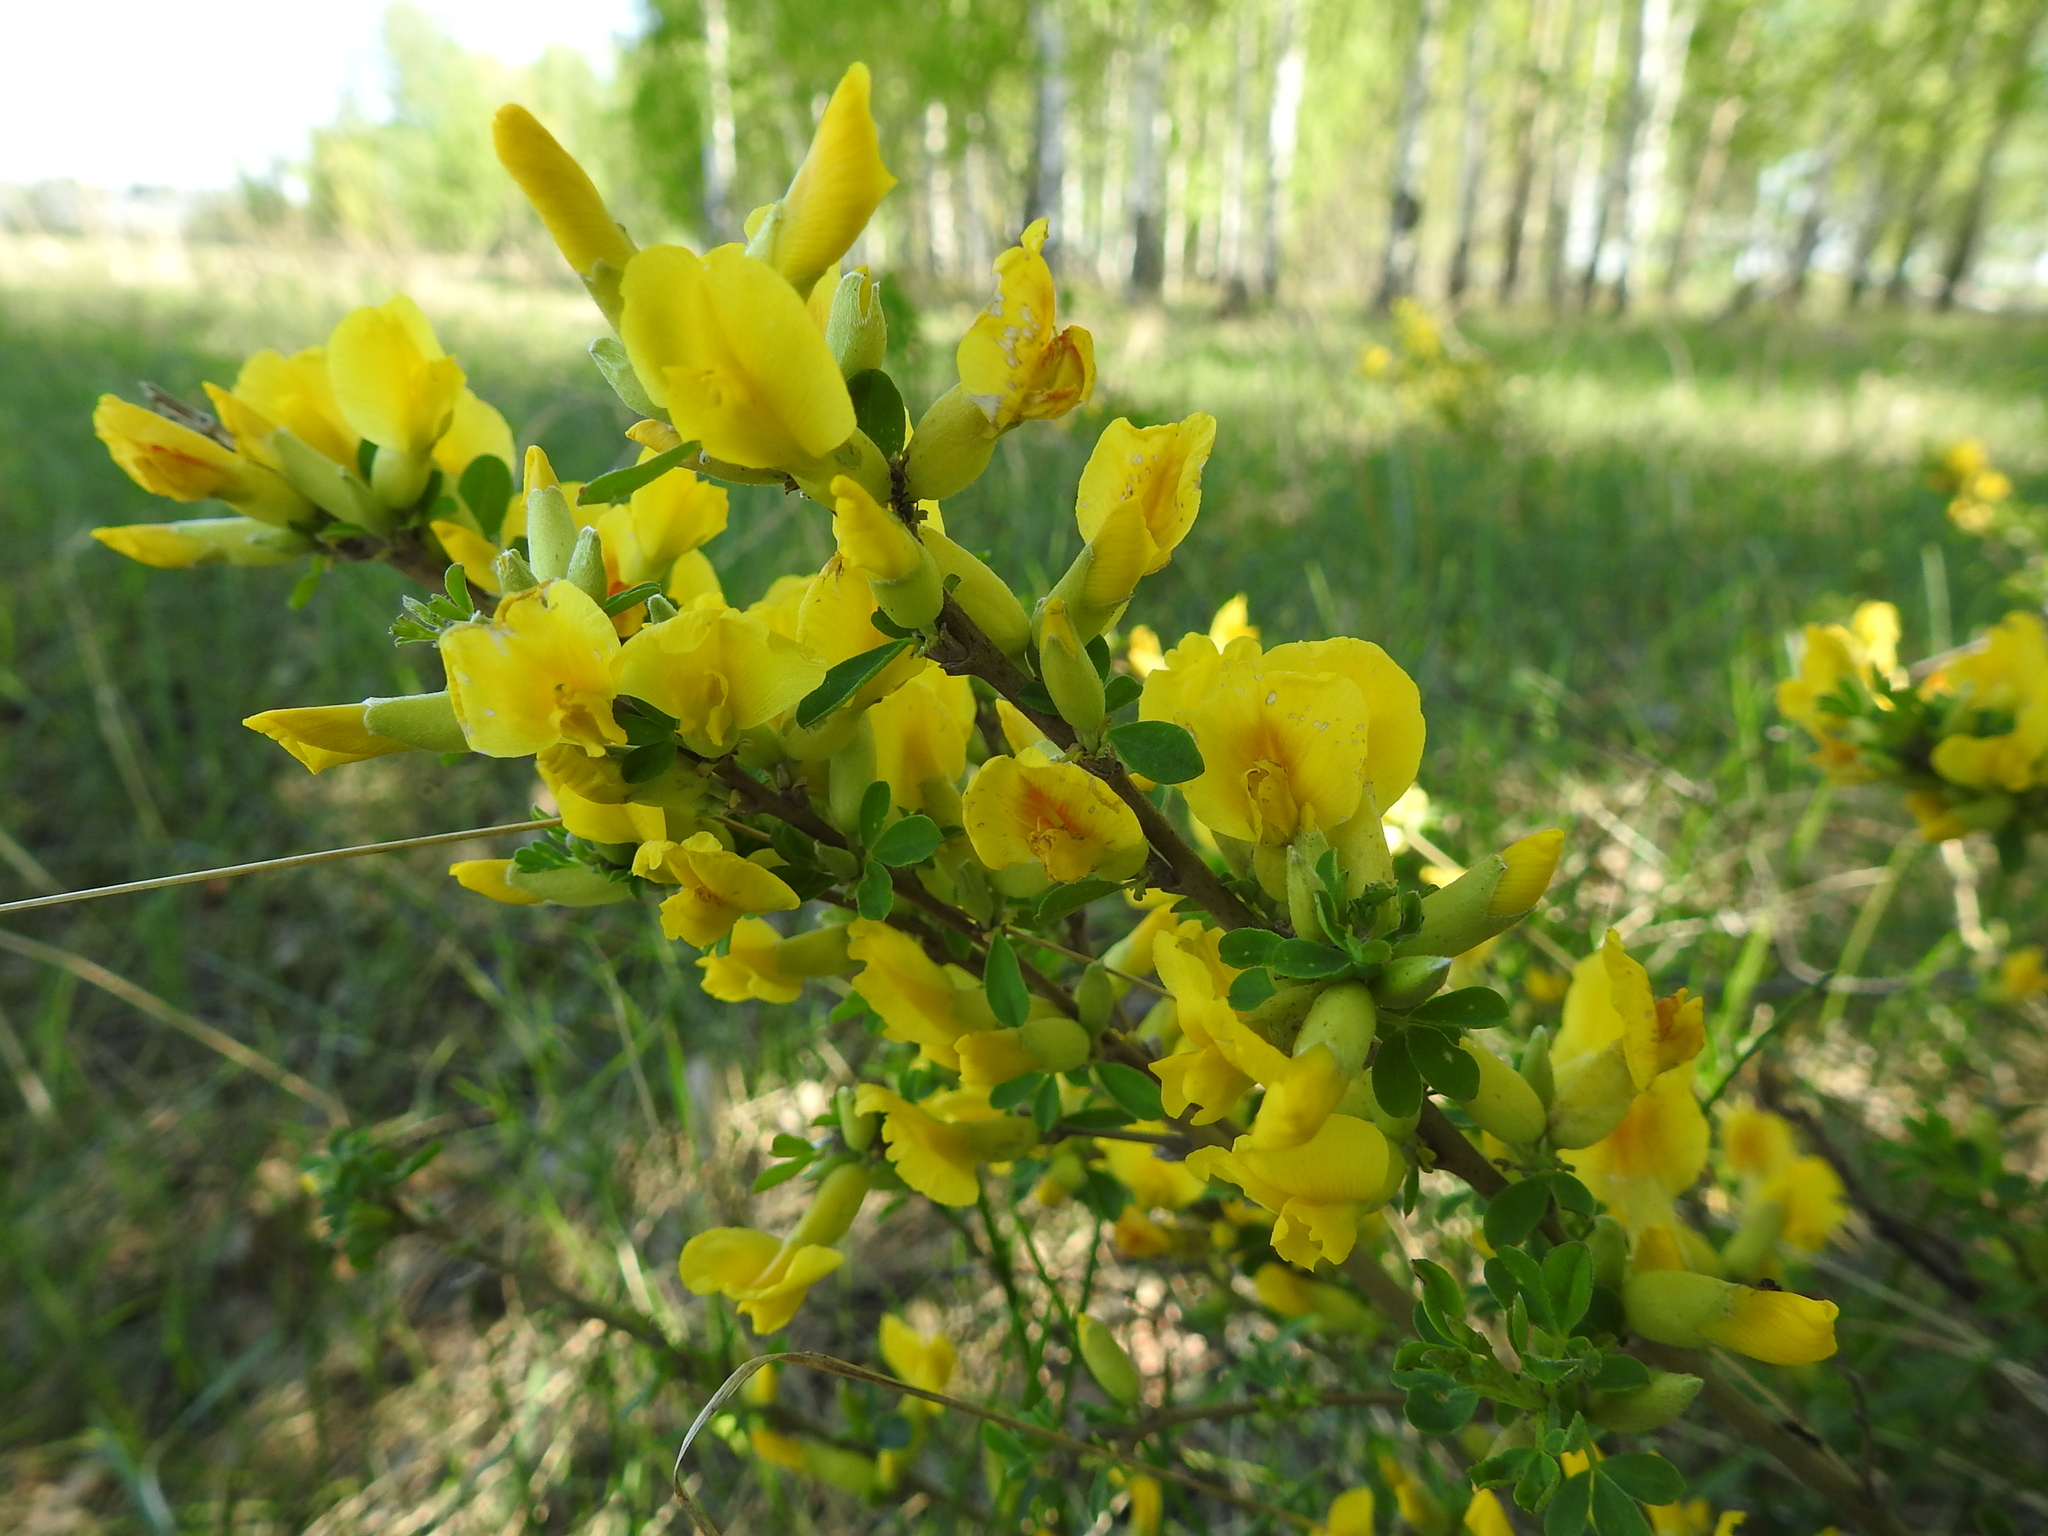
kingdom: Plantae
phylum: Tracheophyta
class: Magnoliopsida
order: Fabales
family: Fabaceae
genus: Chamaecytisus
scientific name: Chamaecytisus ruthenicus
